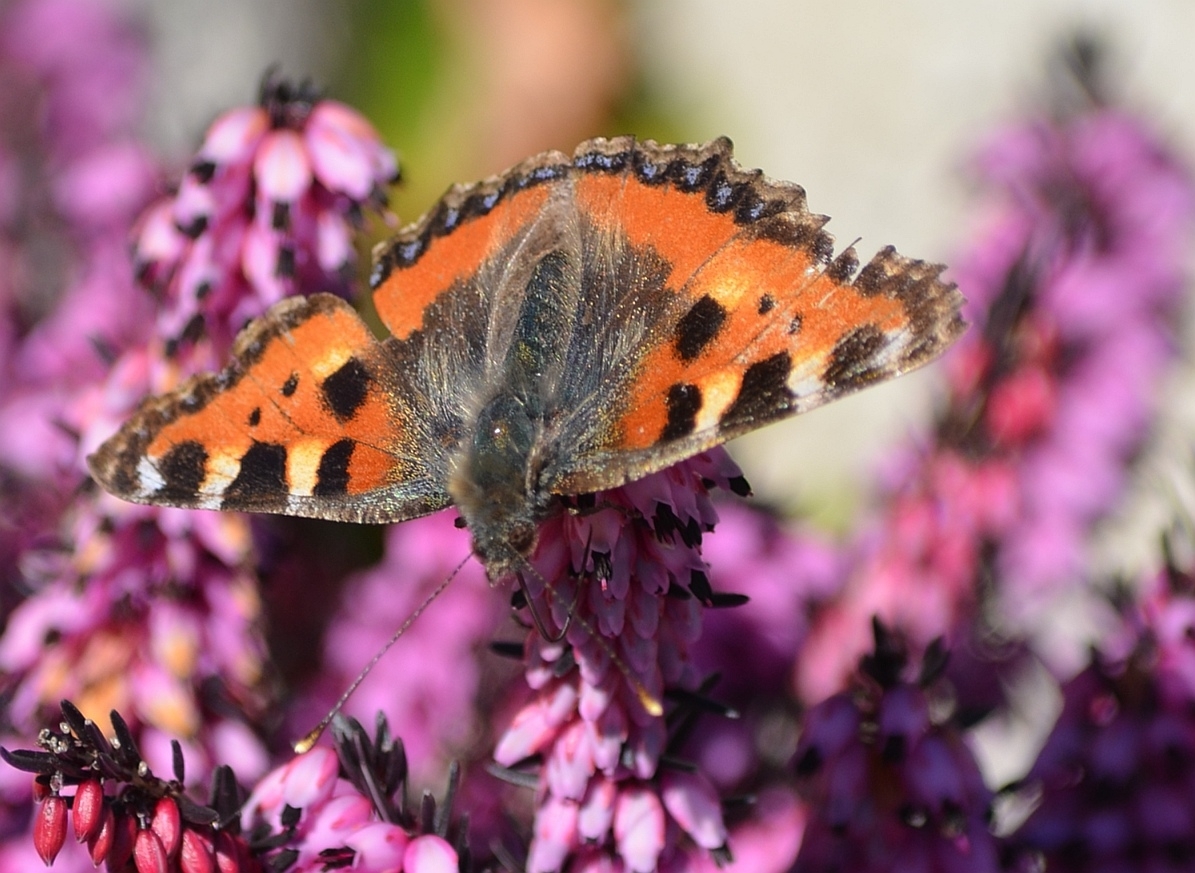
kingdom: Animalia
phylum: Arthropoda
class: Insecta
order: Lepidoptera
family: Nymphalidae
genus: Aglais
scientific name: Aglais urticae
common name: Small tortoiseshell
